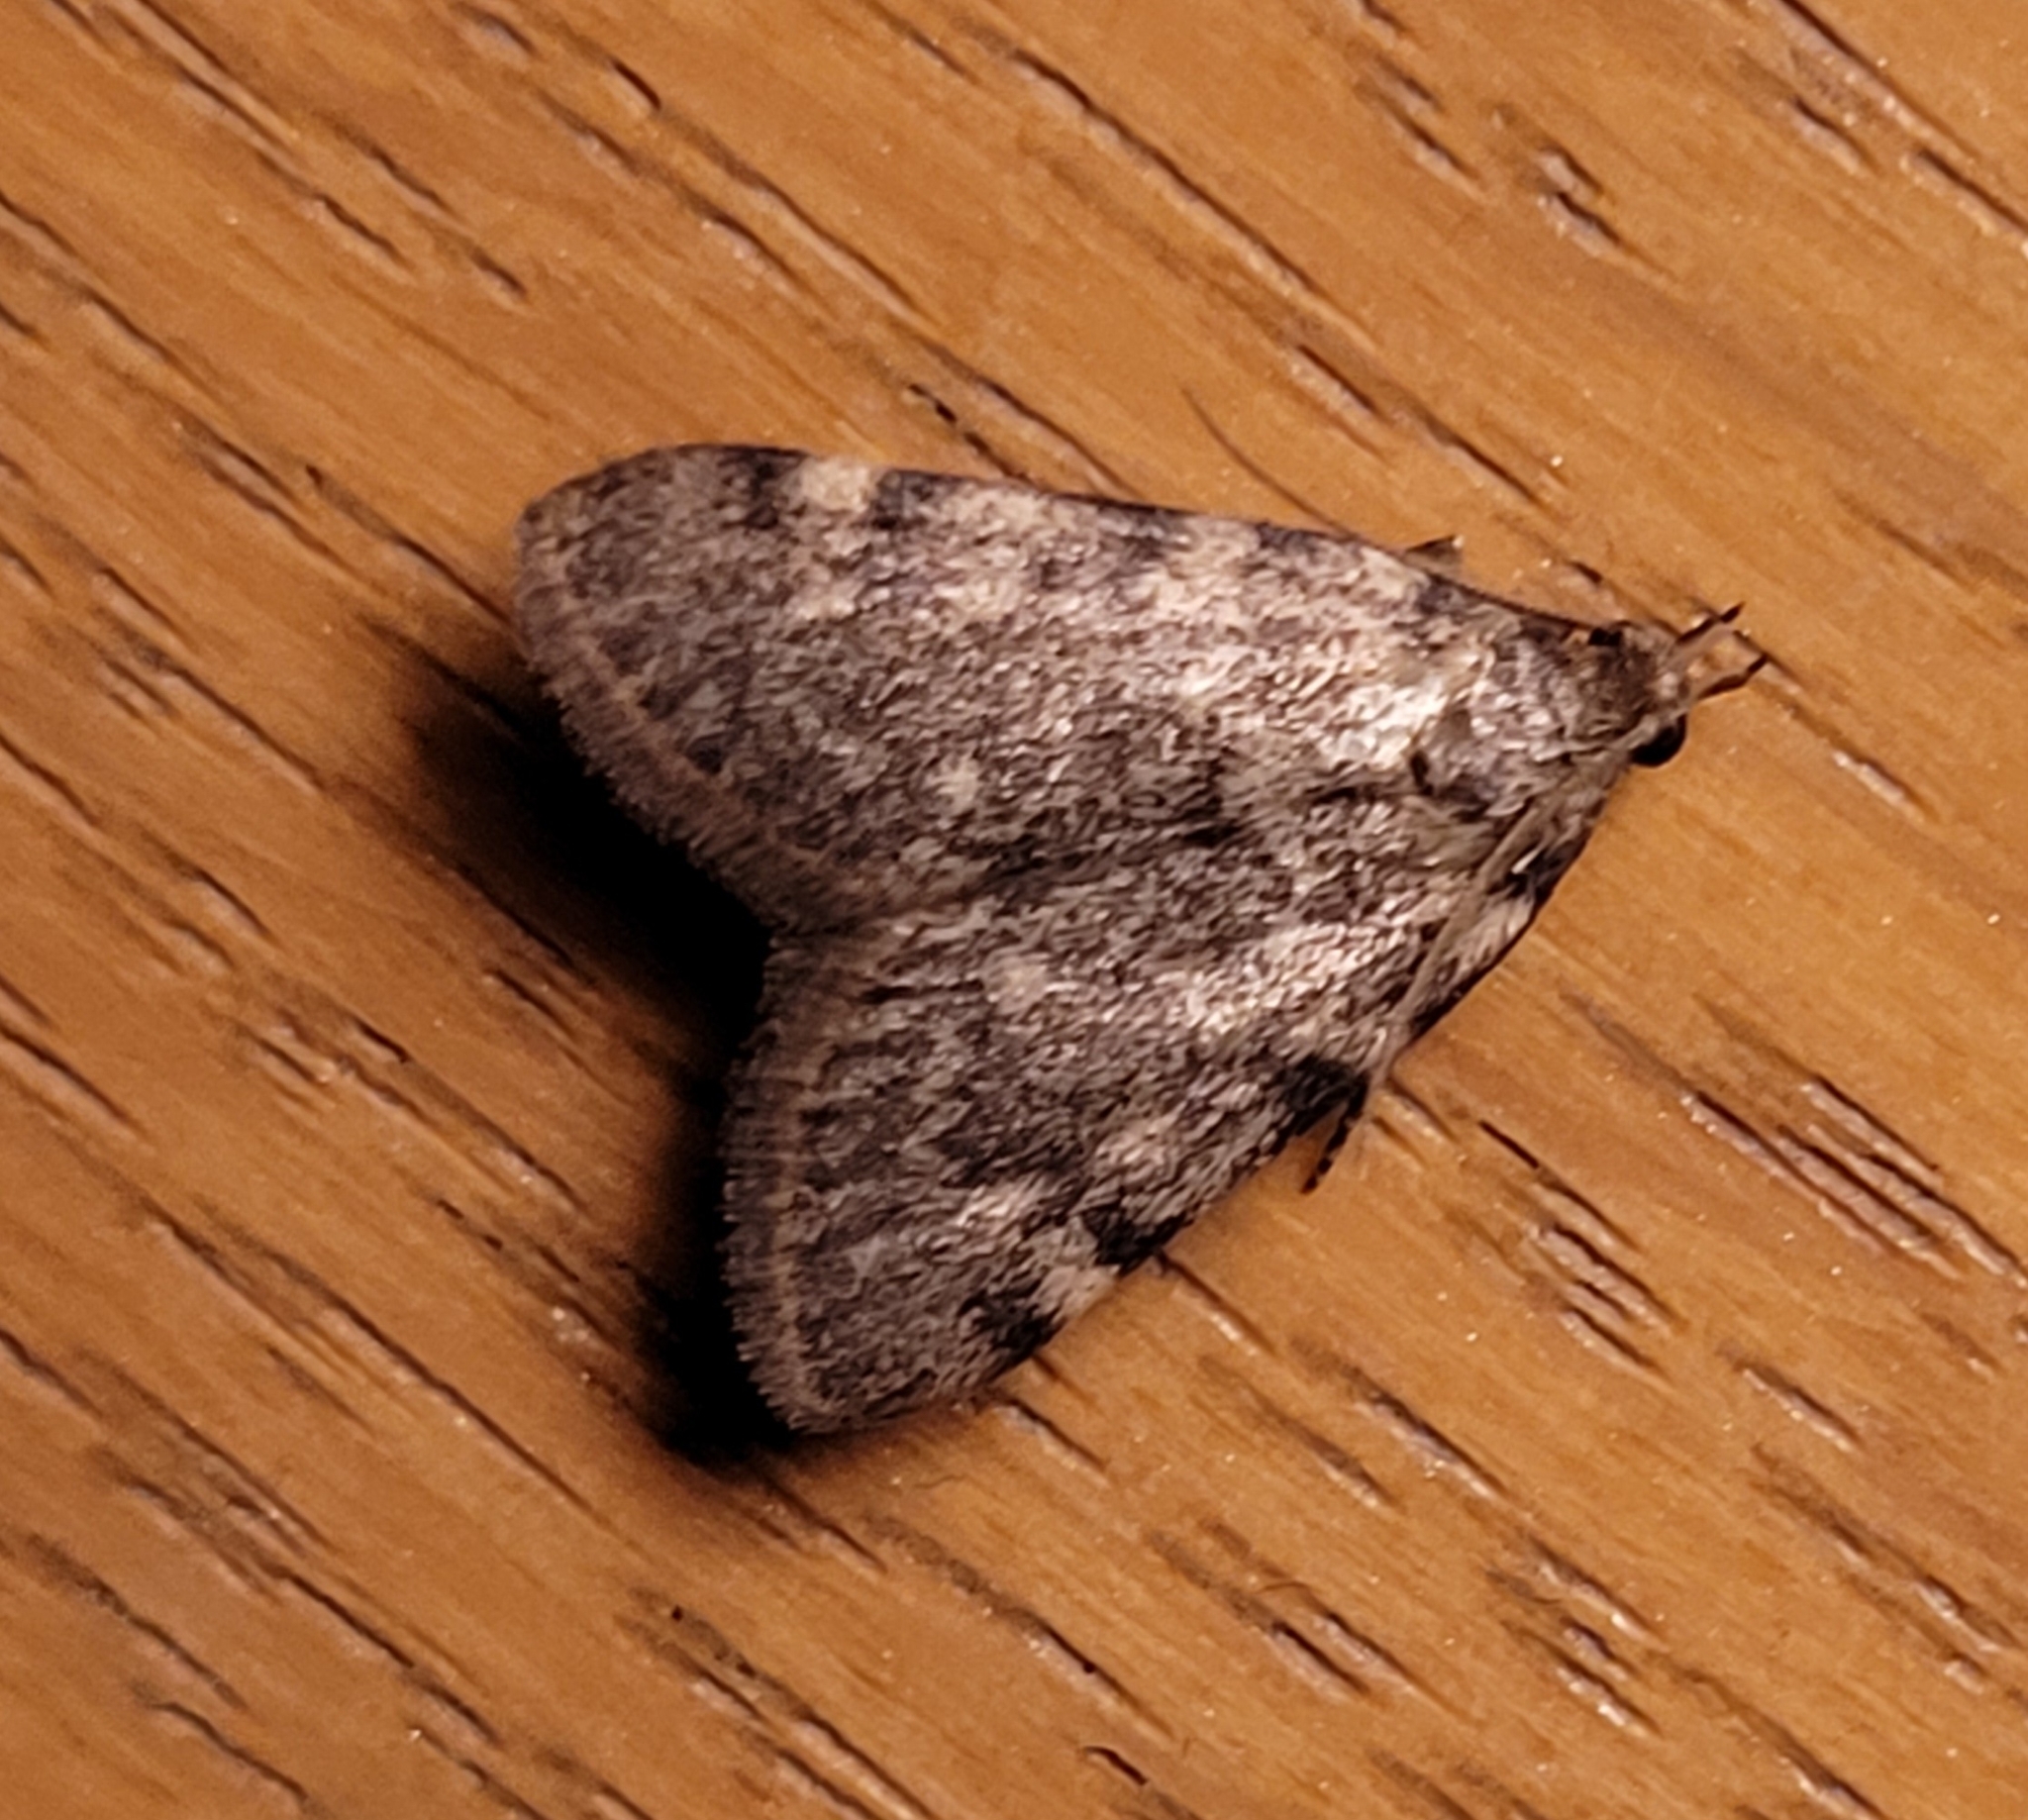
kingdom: Animalia
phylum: Arthropoda
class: Insecta
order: Lepidoptera
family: Pyralidae
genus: Aglossa
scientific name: Aglossa pinguinalis
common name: Large tabby
